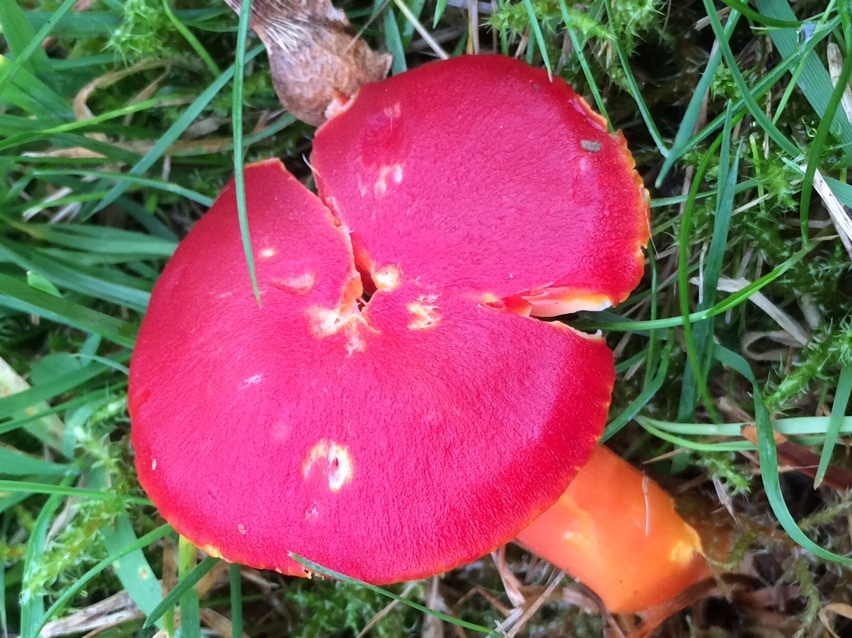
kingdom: Fungi
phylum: Basidiomycota
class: Agaricomycetes
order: Agaricales
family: Hygrophoraceae
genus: Hygrocybe
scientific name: Hygrocybe coccinea
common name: Scarlet hood
